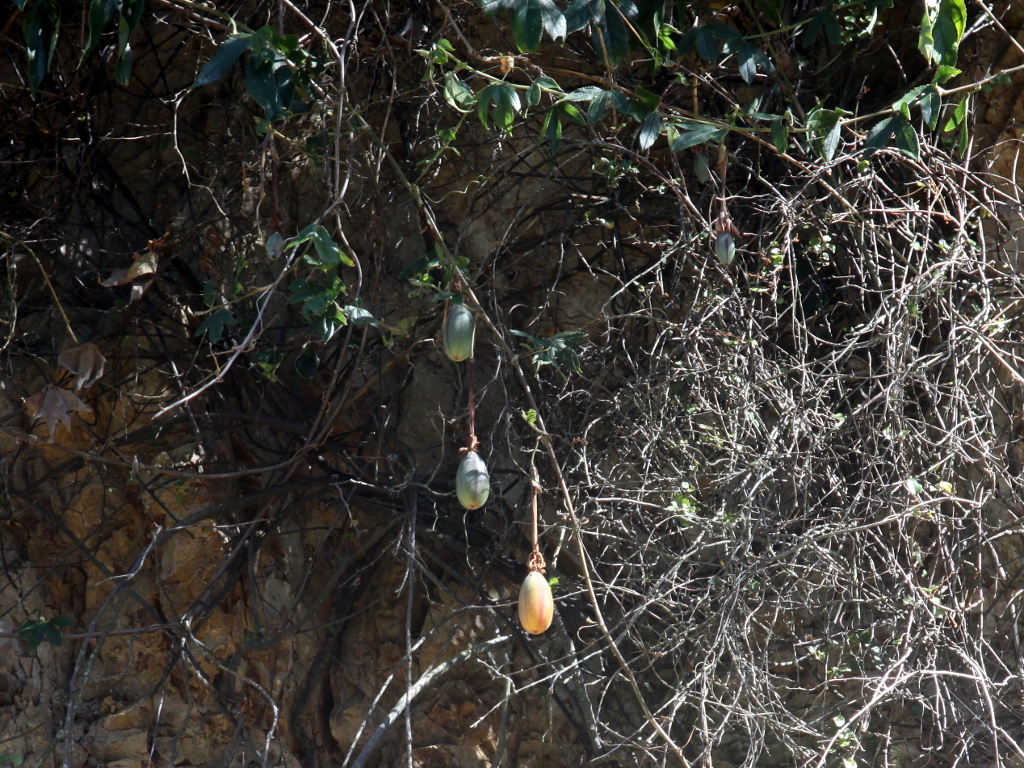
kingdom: Plantae
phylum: Tracheophyta
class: Magnoliopsida
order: Malpighiales
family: Passifloraceae
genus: Passiflora
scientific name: Passiflora tripartita
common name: Banana poka
